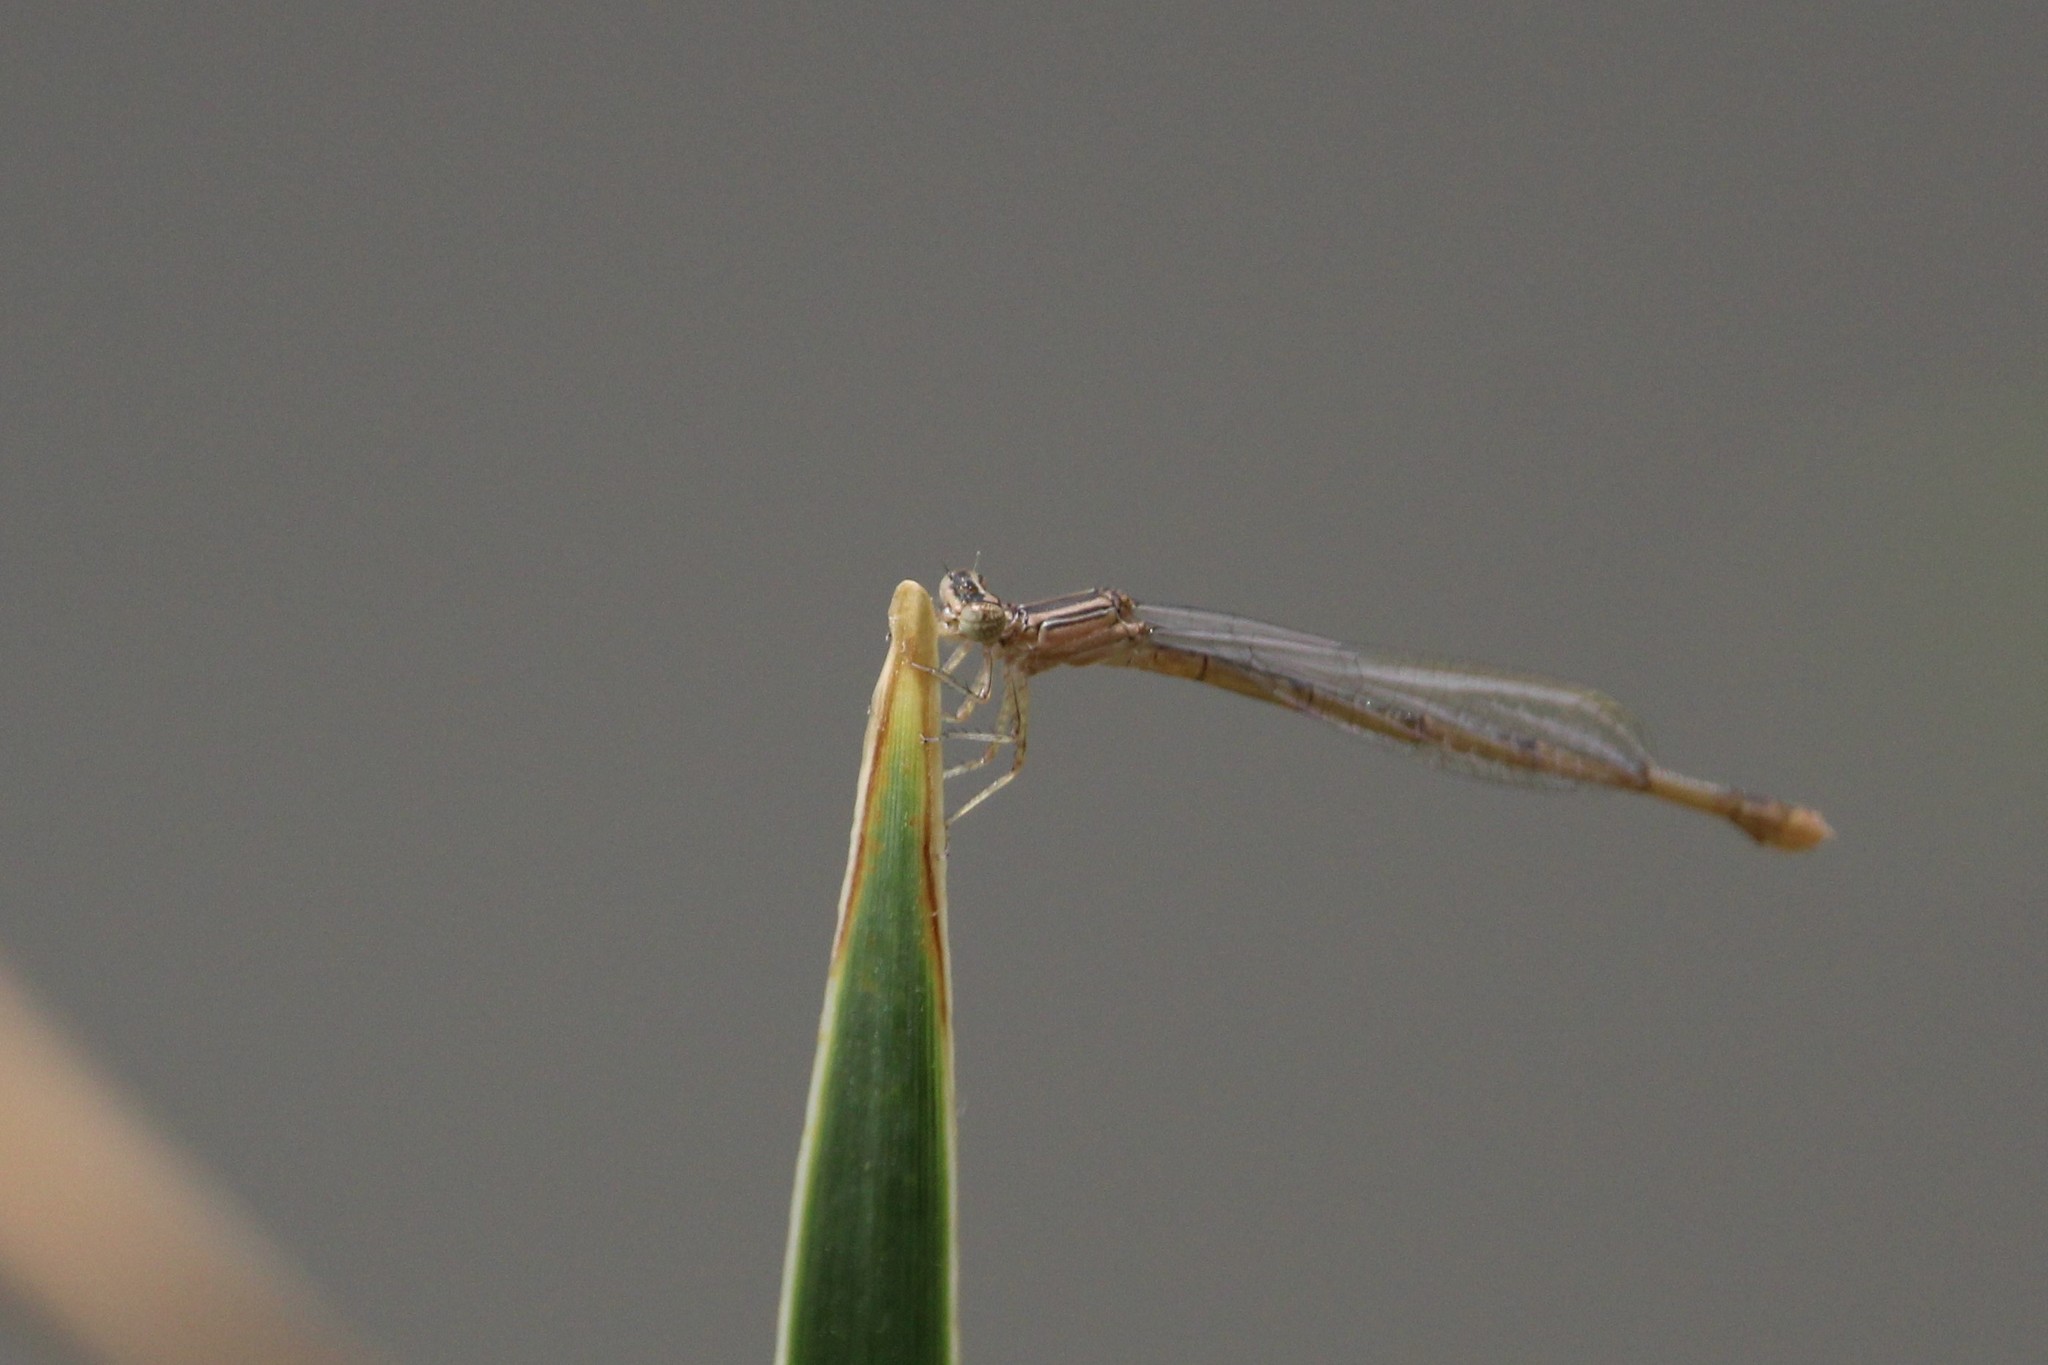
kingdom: Animalia
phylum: Arthropoda
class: Insecta
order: Odonata
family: Coenagrionidae
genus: Enallagma
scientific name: Enallagma basidens
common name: Double-striped bluet
